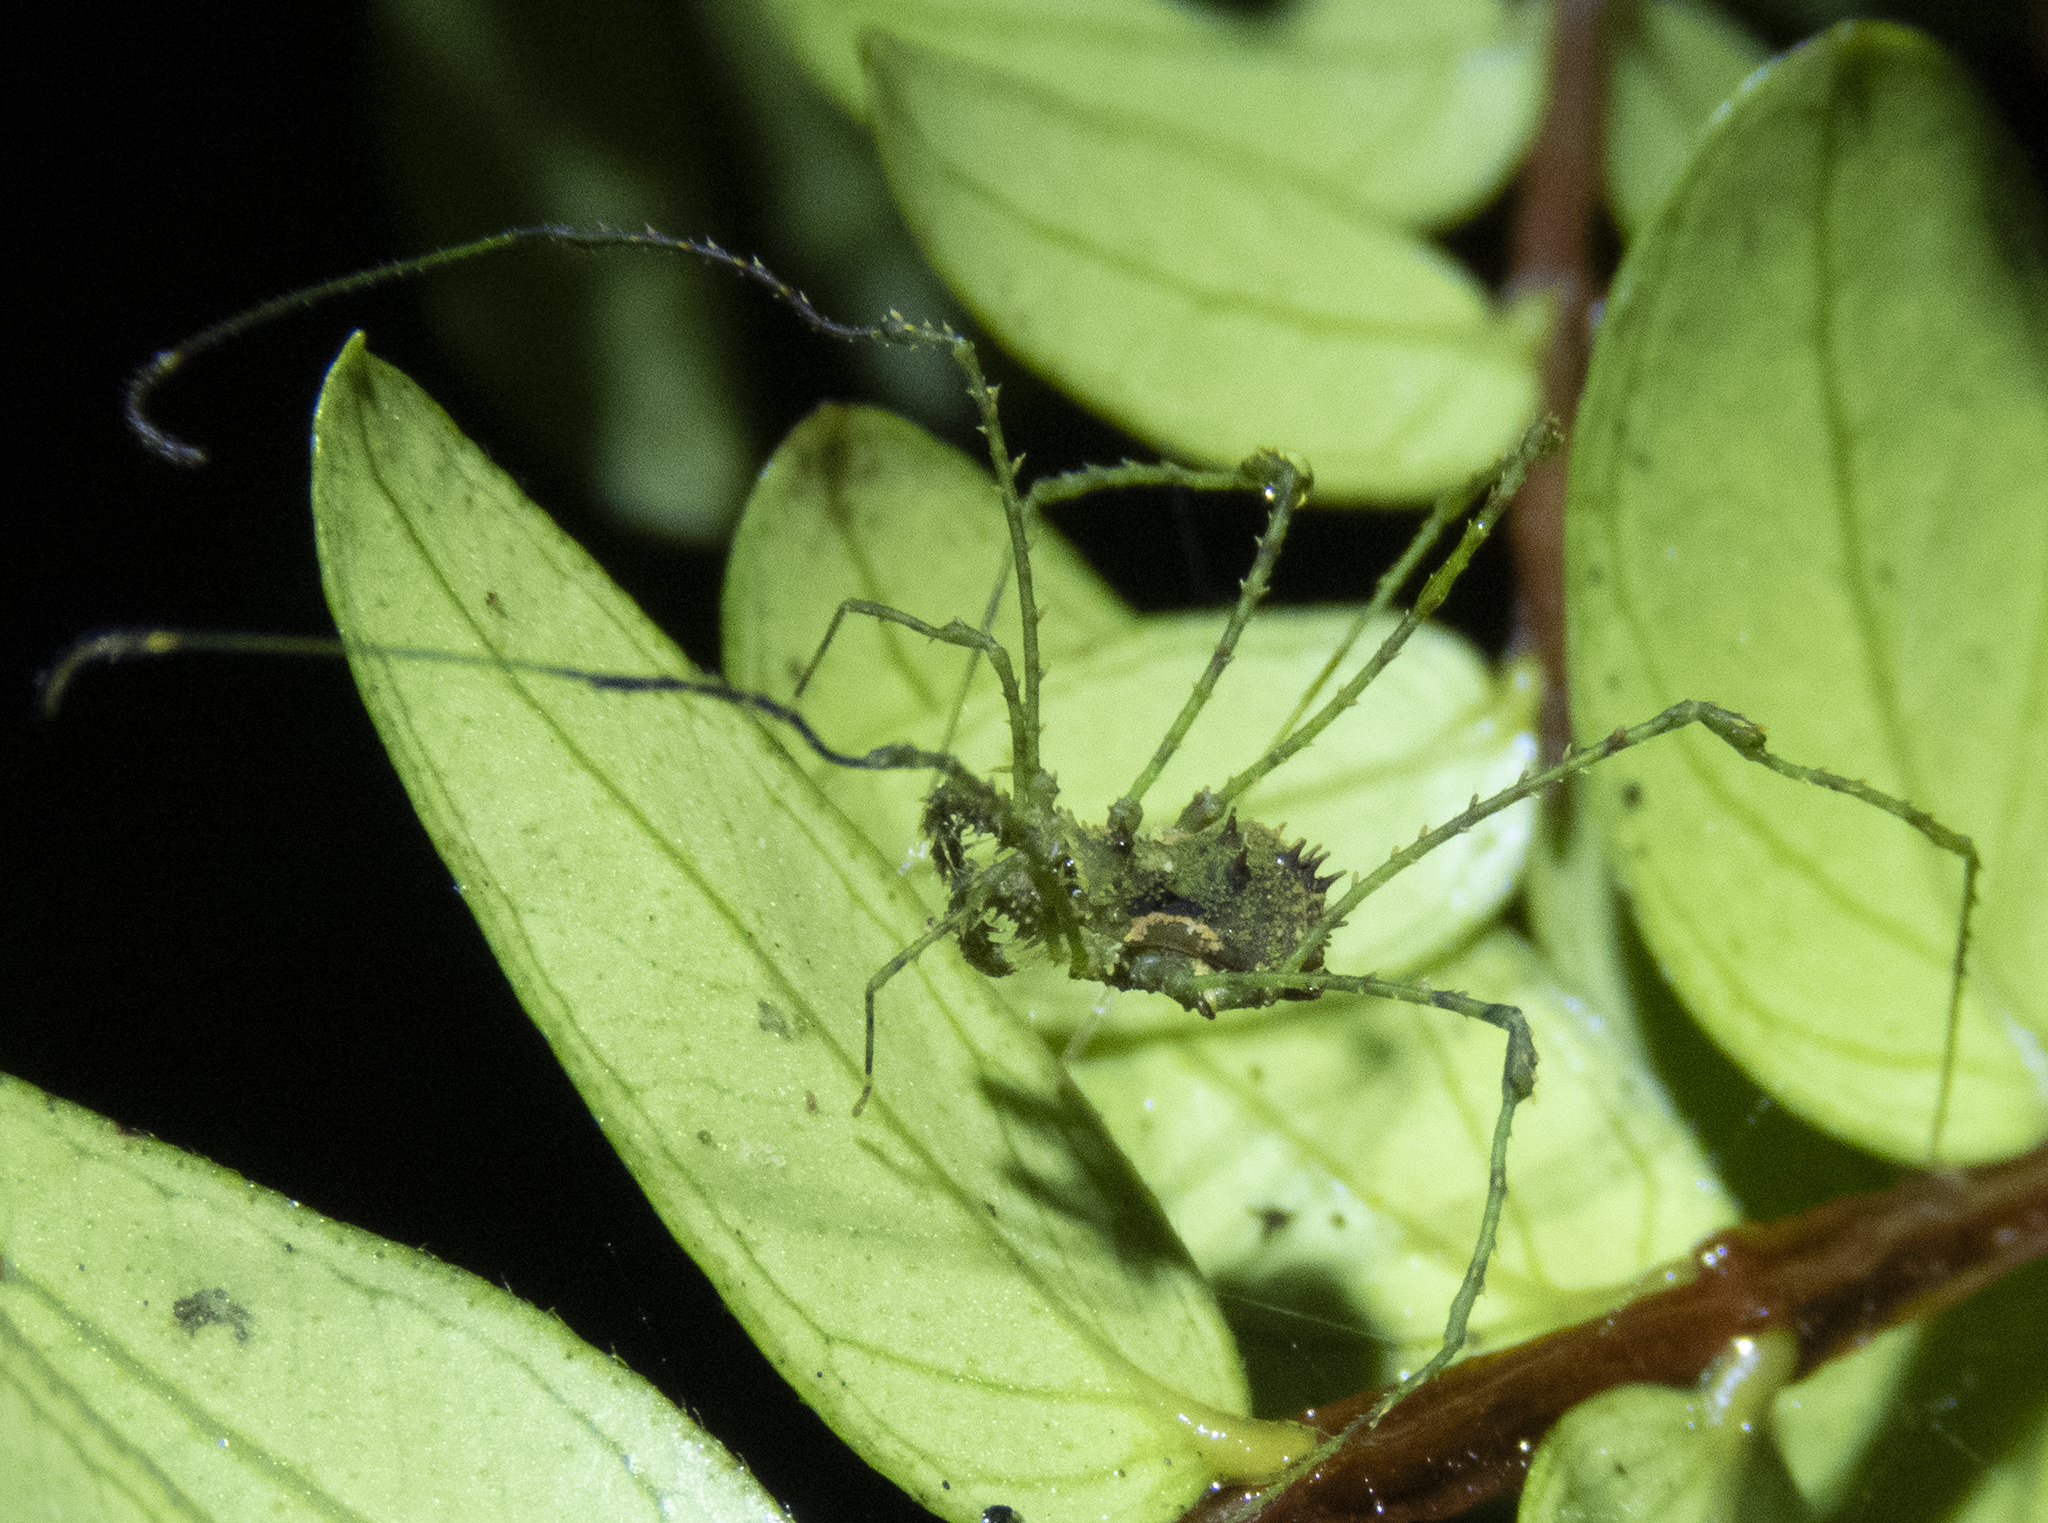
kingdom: Animalia
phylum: Arthropoda
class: Arachnida
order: Opiliones
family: Triaenonychidae
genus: Algidia
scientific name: Algidia viridata
